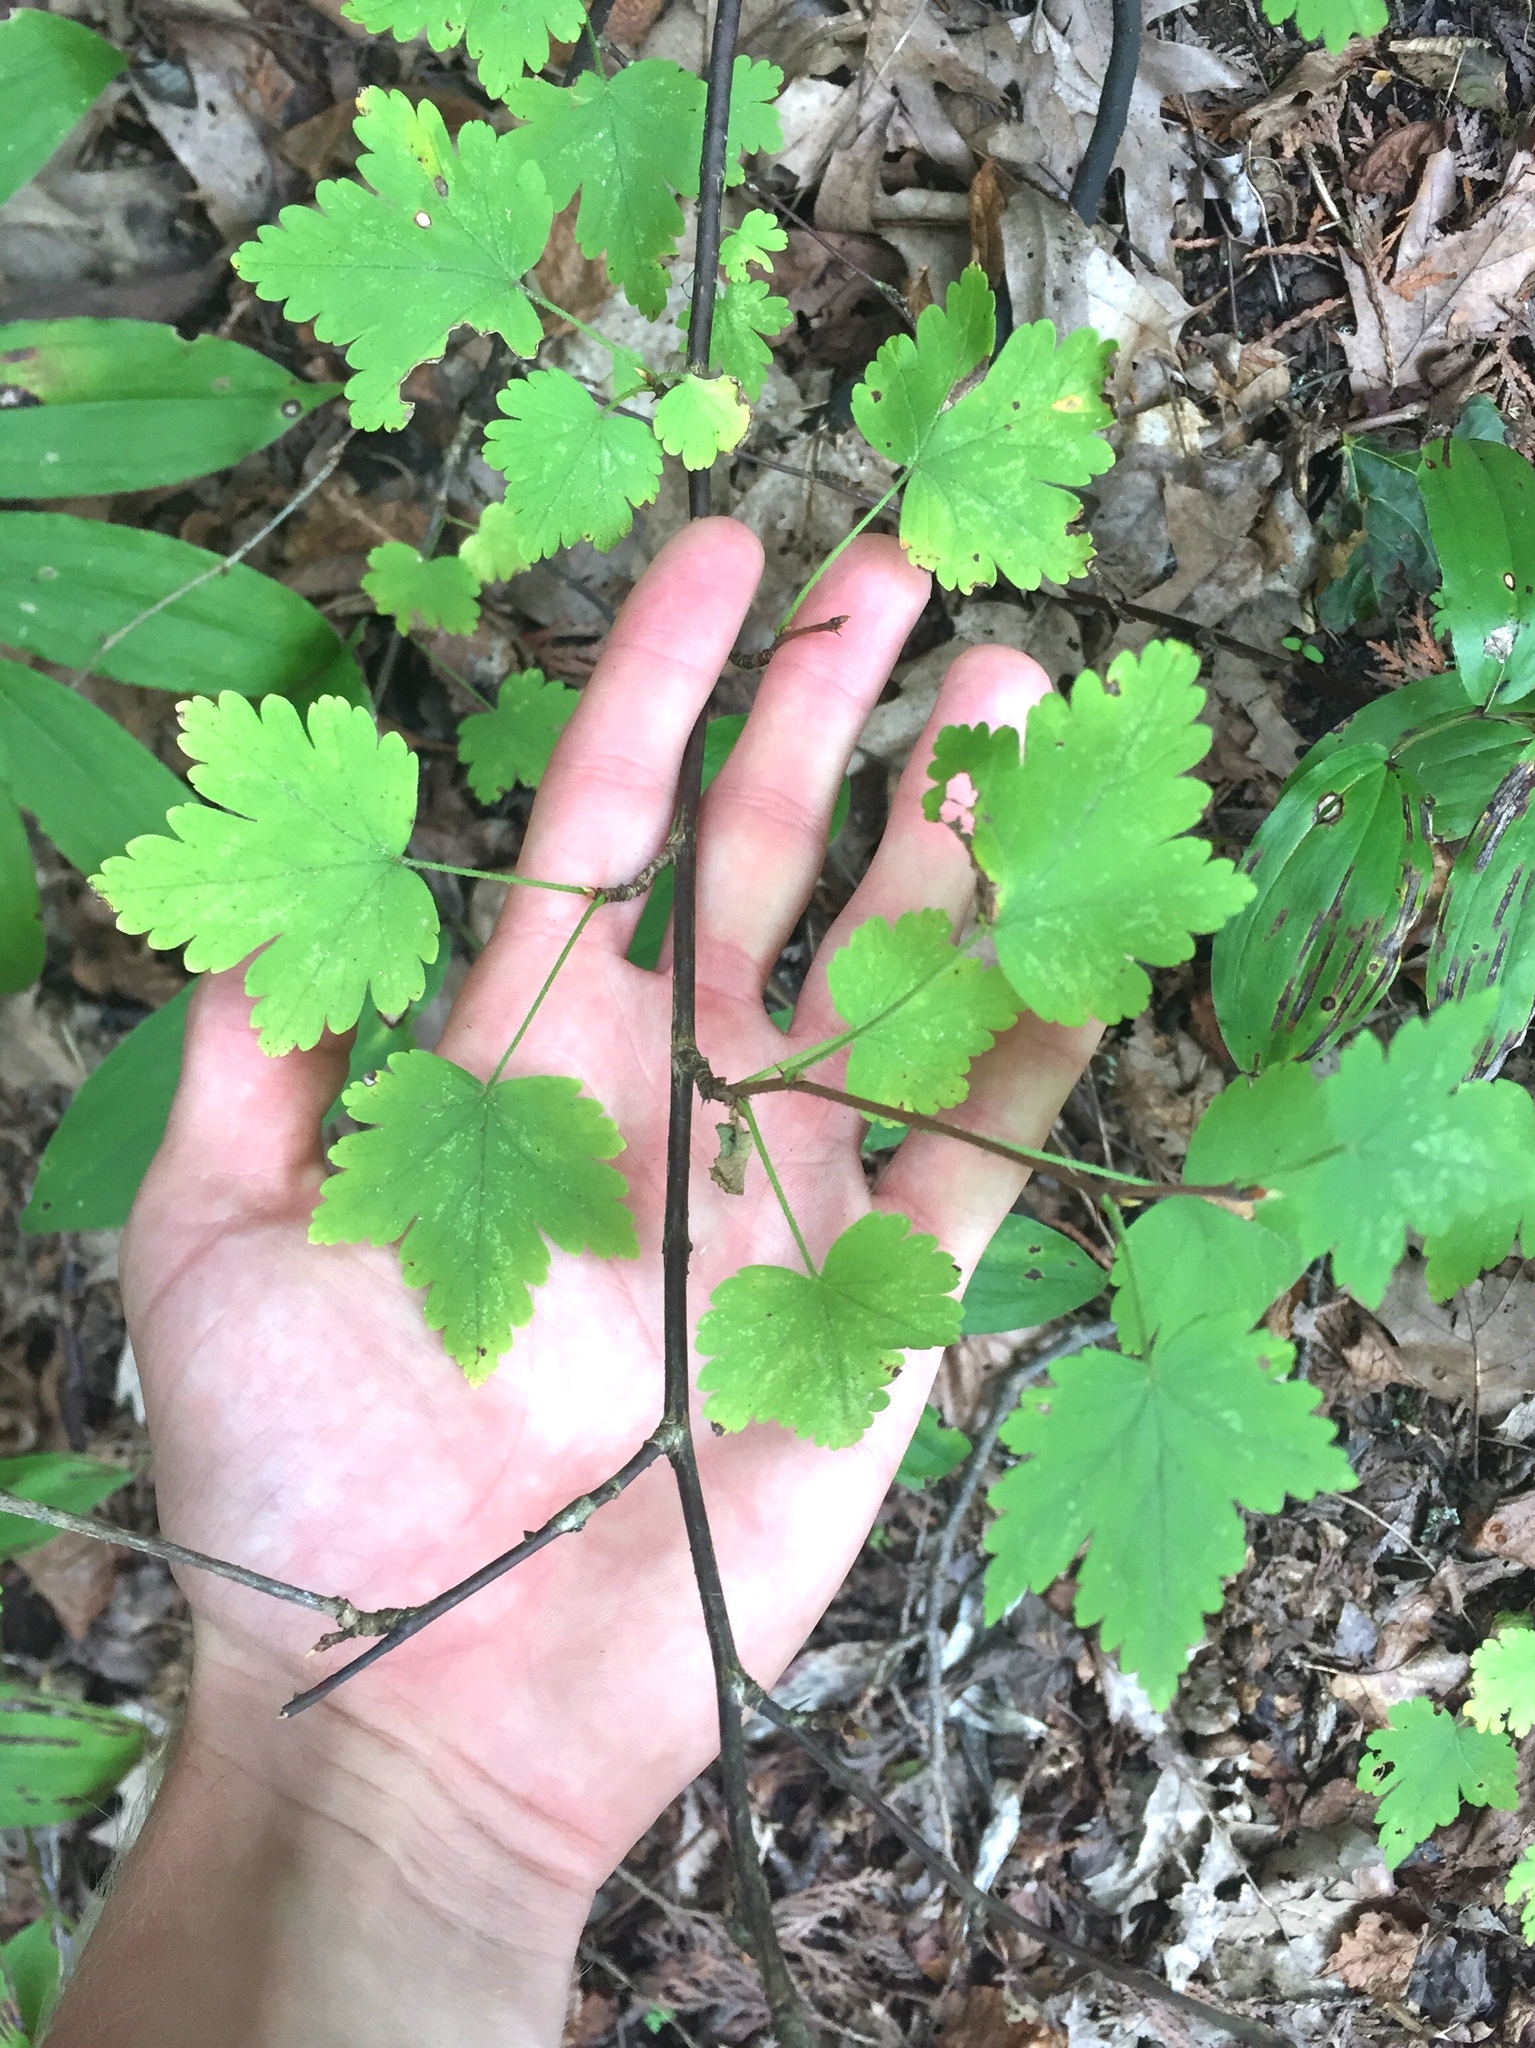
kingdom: Plantae
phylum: Tracheophyta
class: Magnoliopsida
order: Saxifragales
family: Grossulariaceae
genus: Ribes
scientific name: Ribes cynosbati
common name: American gooseberry
